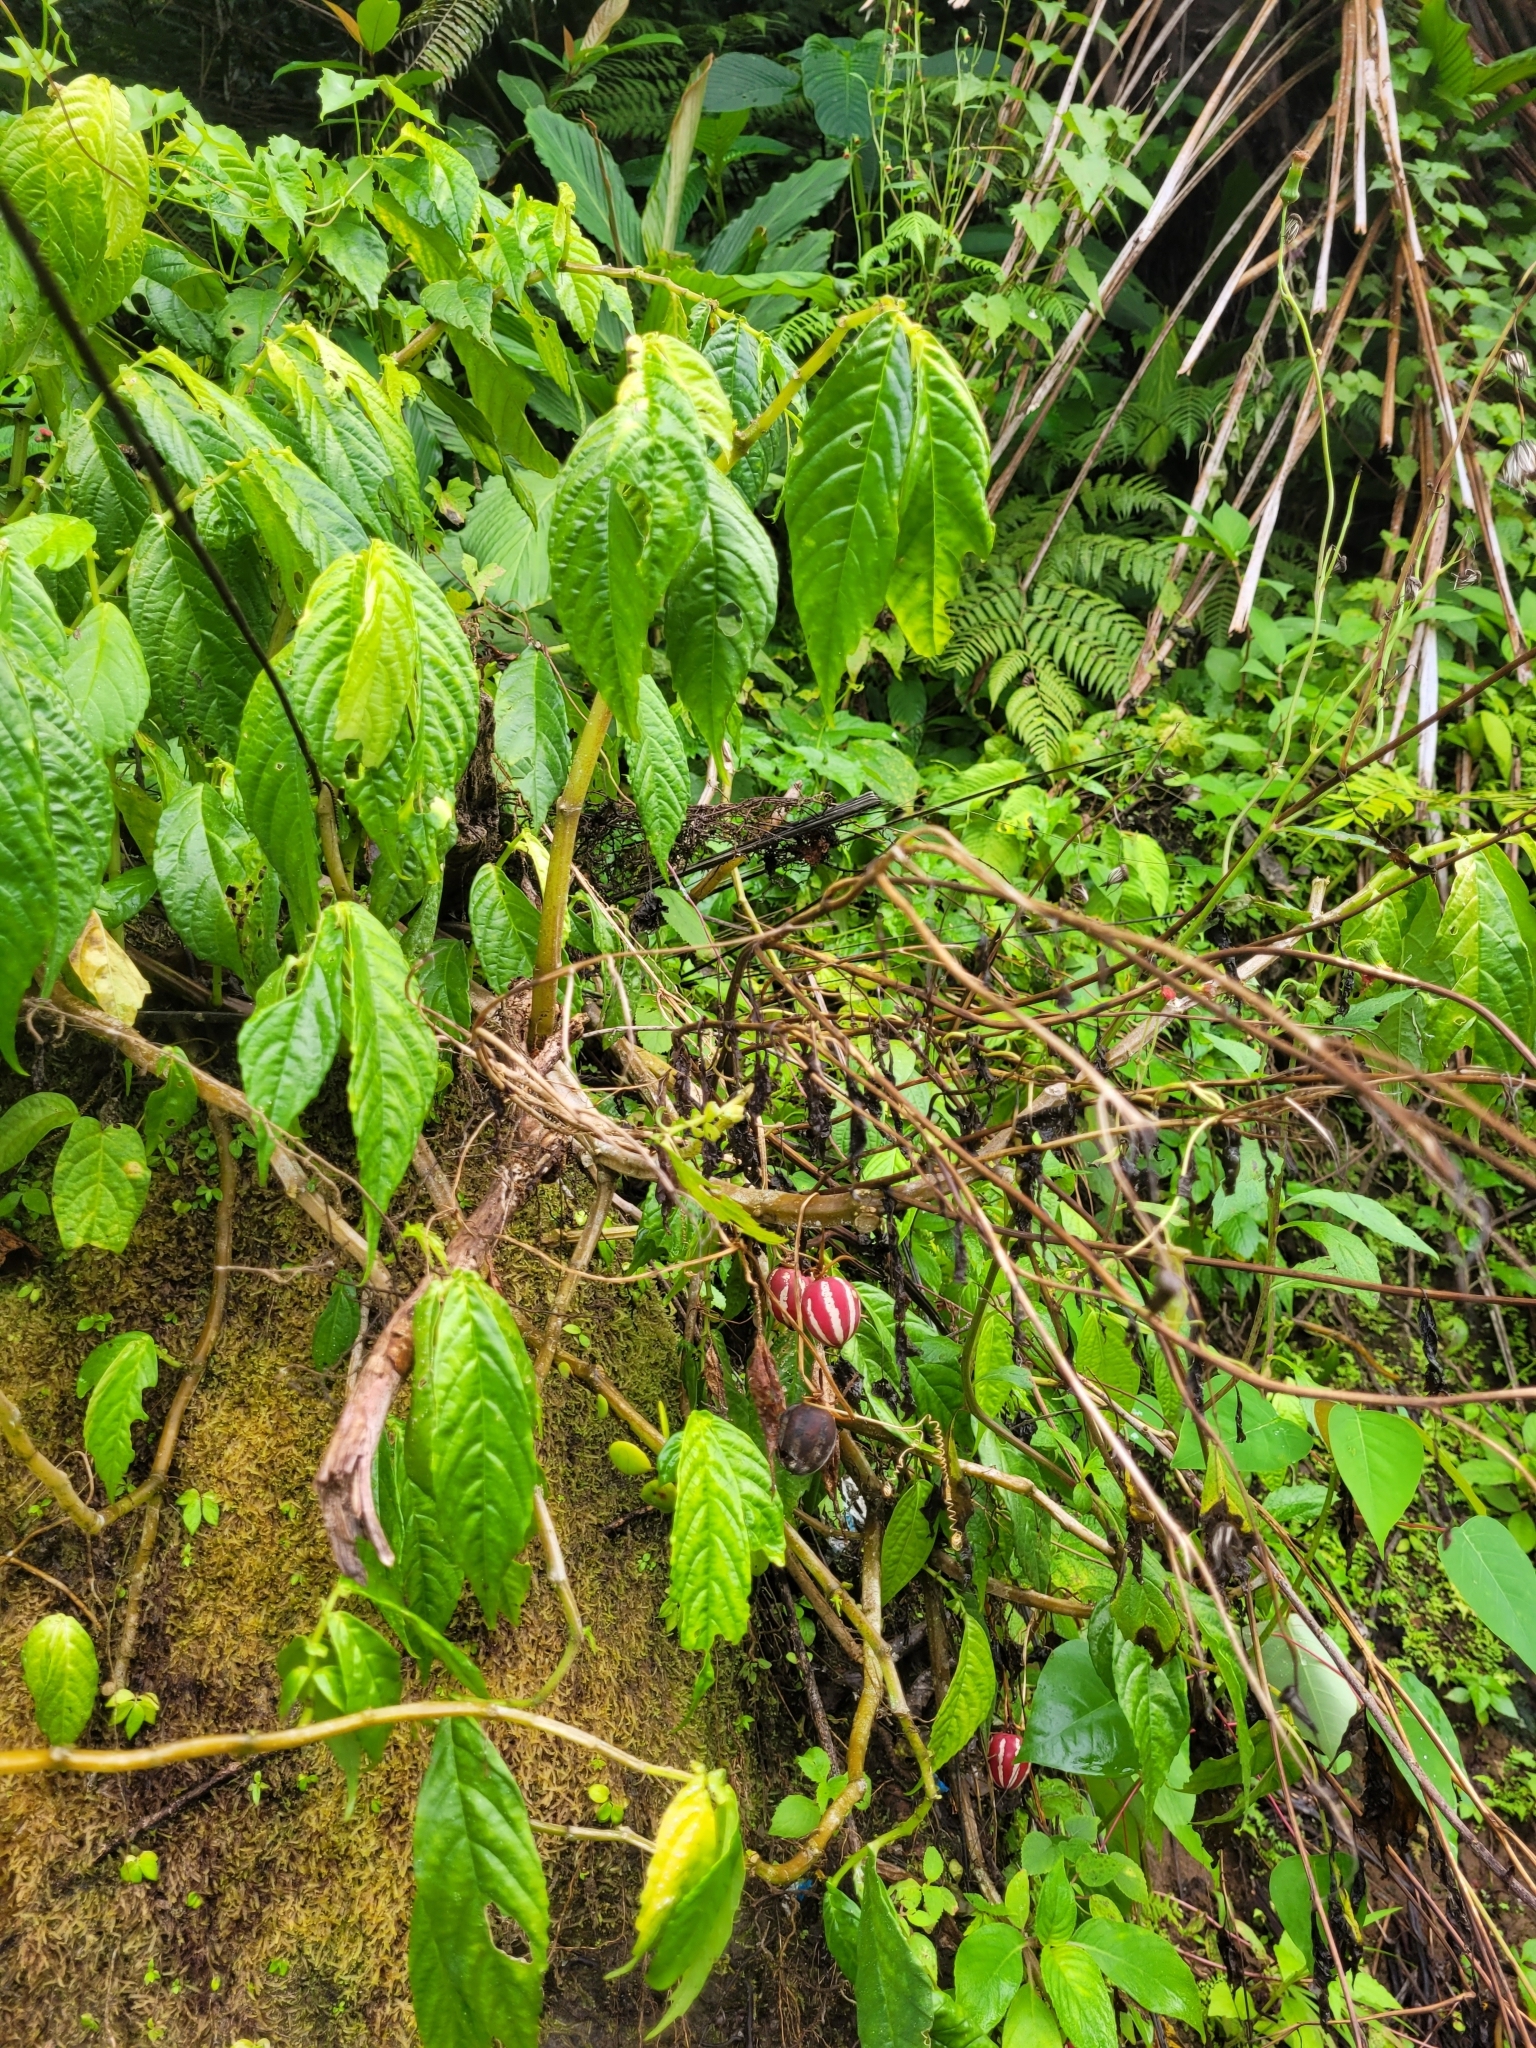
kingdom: Plantae
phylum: Tracheophyta
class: Magnoliopsida
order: Cucurbitales
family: Cucurbitaceae
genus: Diplocyclos
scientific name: Diplocyclos palmatus
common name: Striped-cucumber
